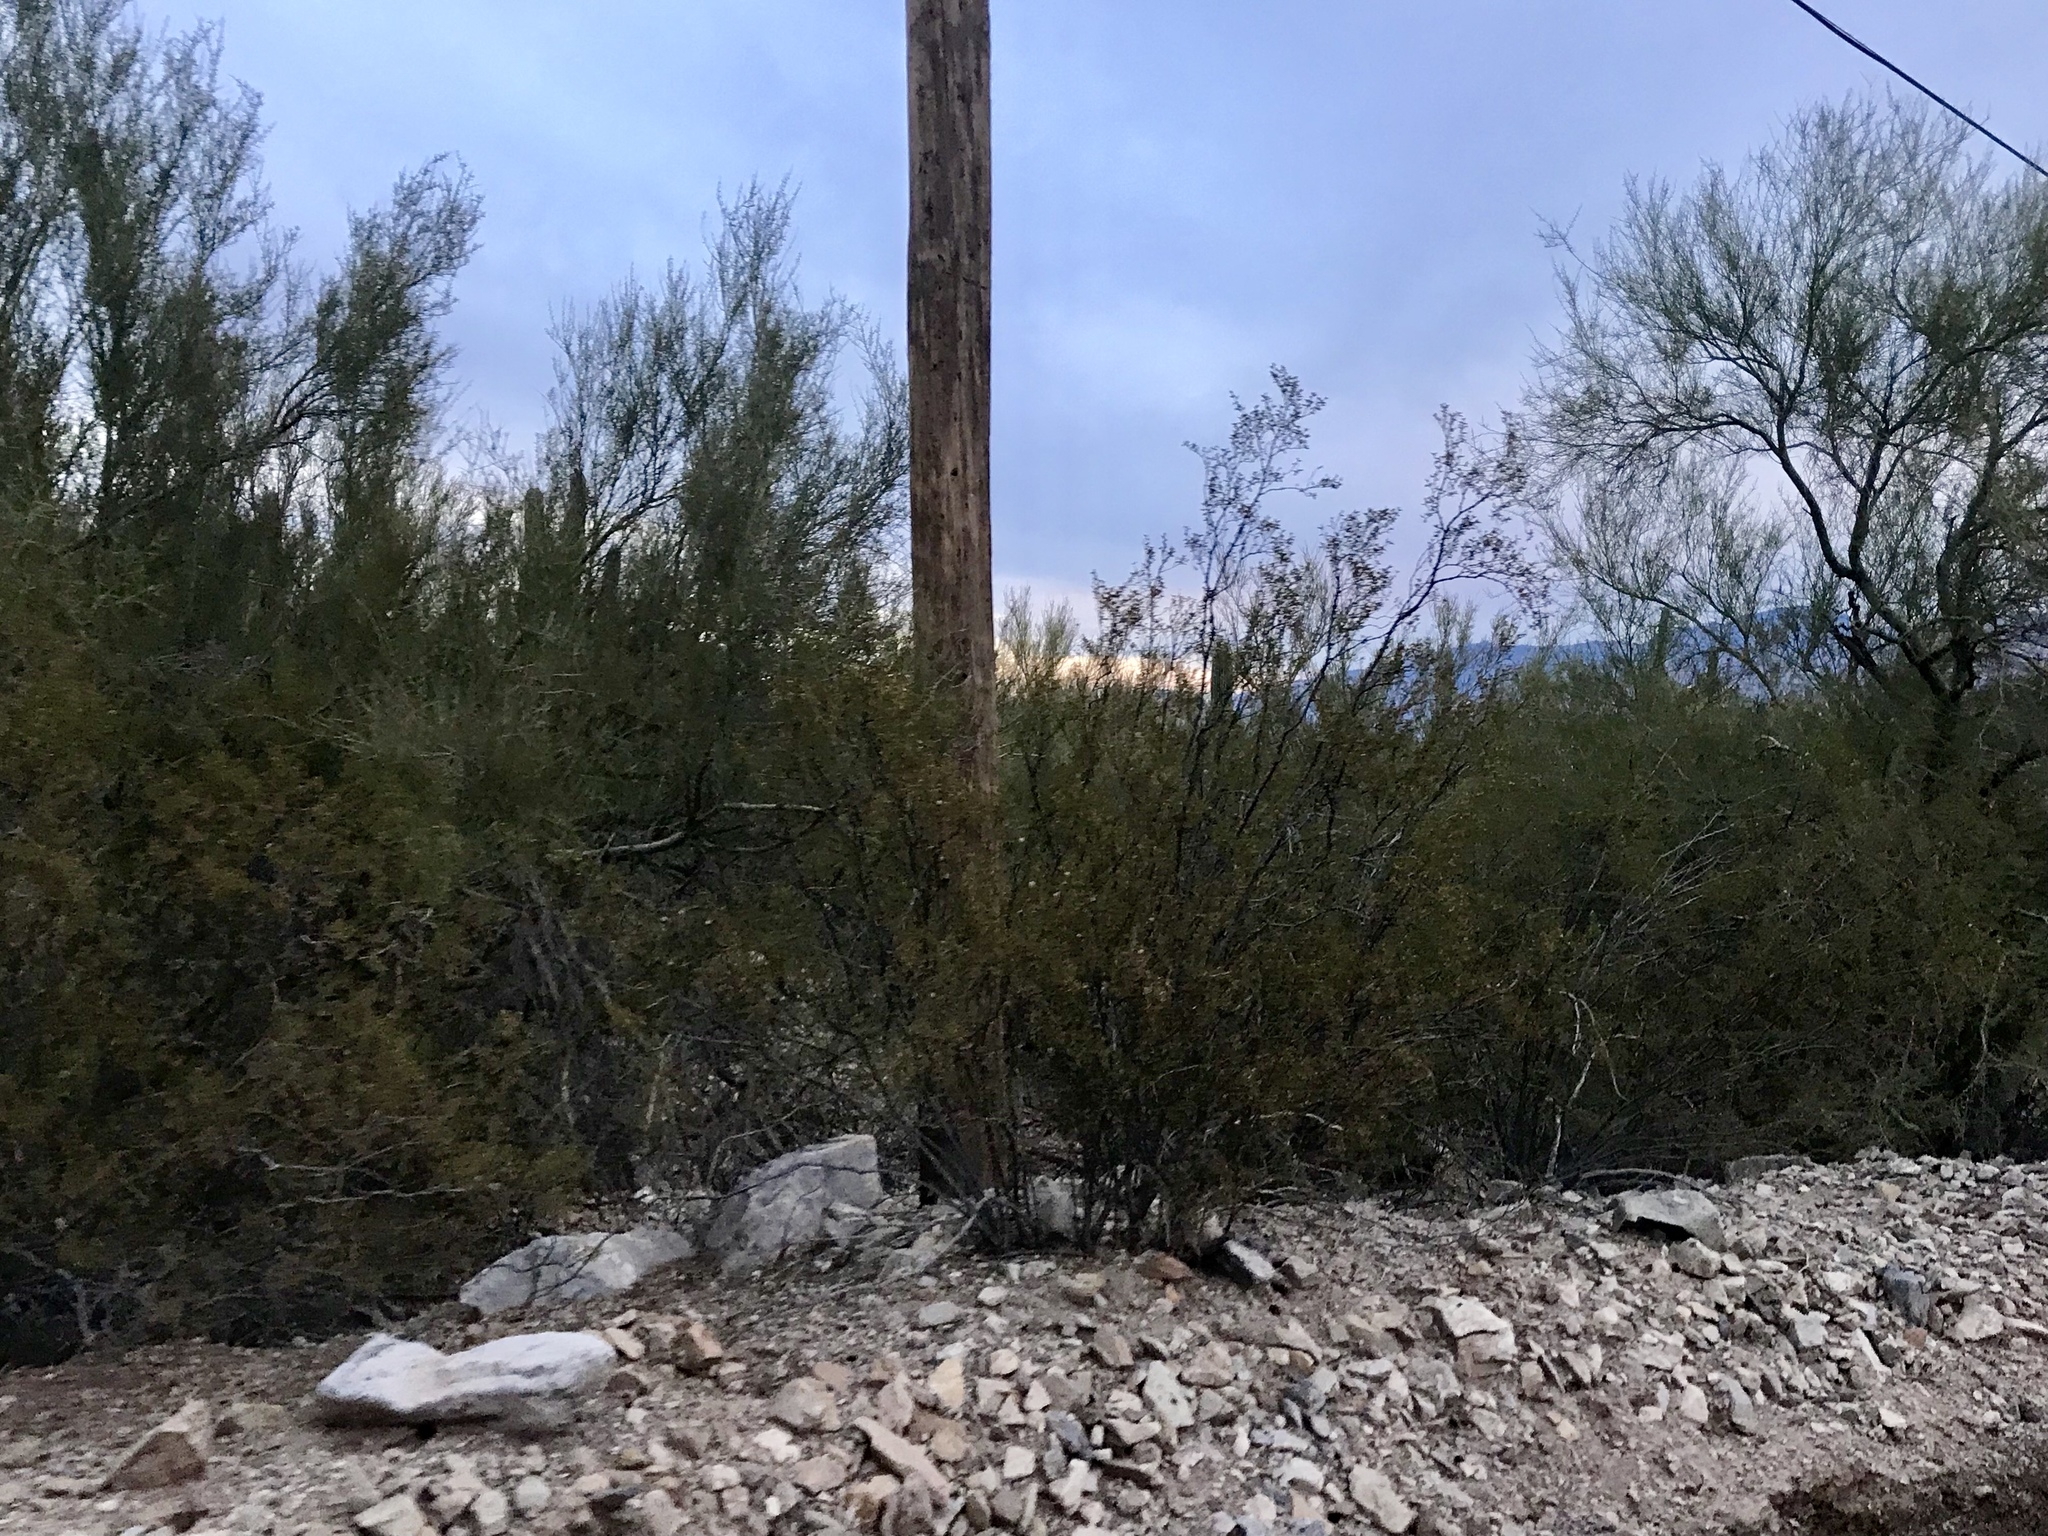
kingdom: Plantae
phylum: Tracheophyta
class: Magnoliopsida
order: Fabales
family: Fabaceae
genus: Parkinsonia
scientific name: Parkinsonia florida
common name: Blue paloverde
